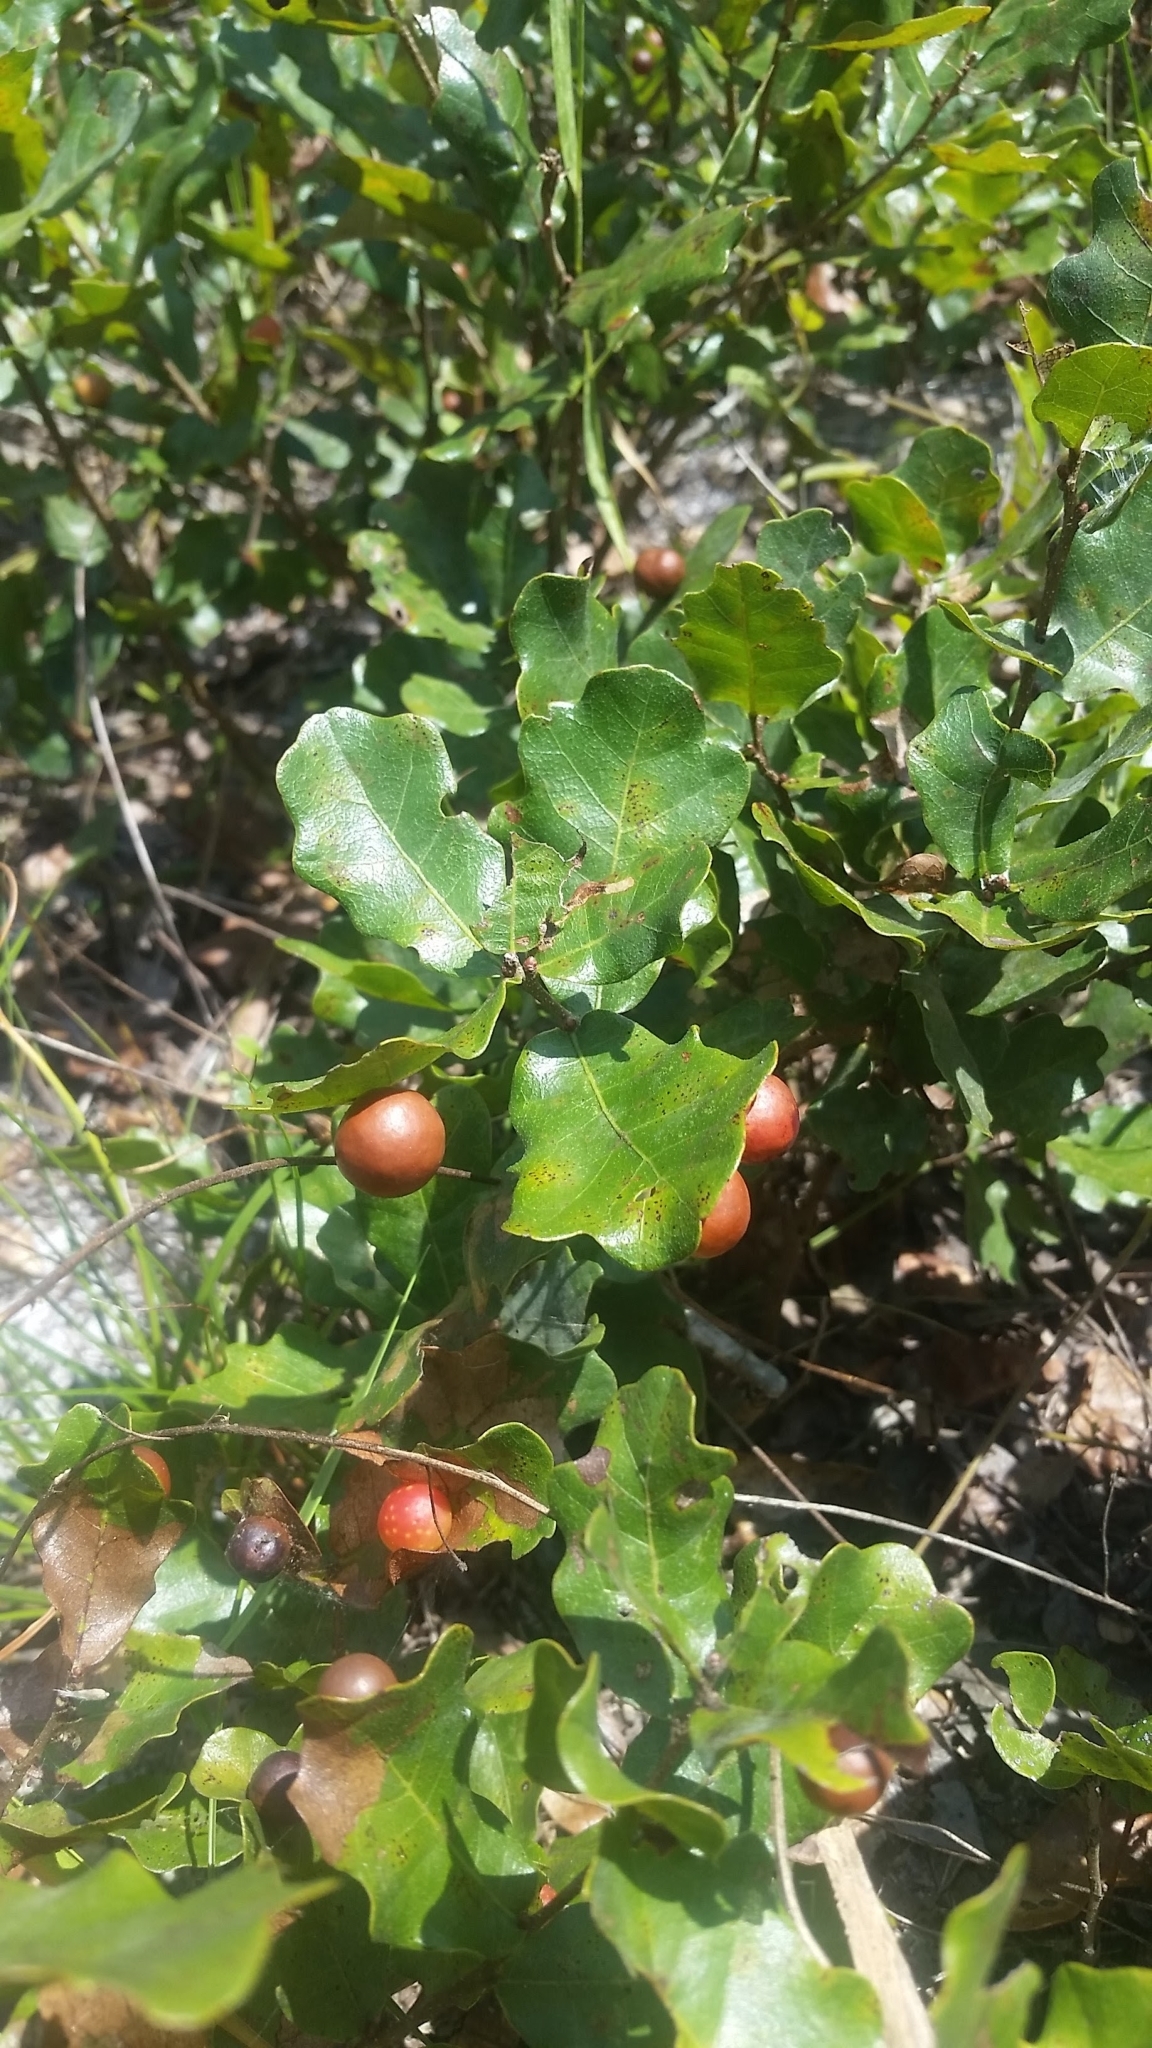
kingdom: Plantae
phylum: Tracheophyta
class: Magnoliopsida
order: Fagales
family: Fagaceae
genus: Quercus
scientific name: Quercus chapmanii
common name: Chapman oak
